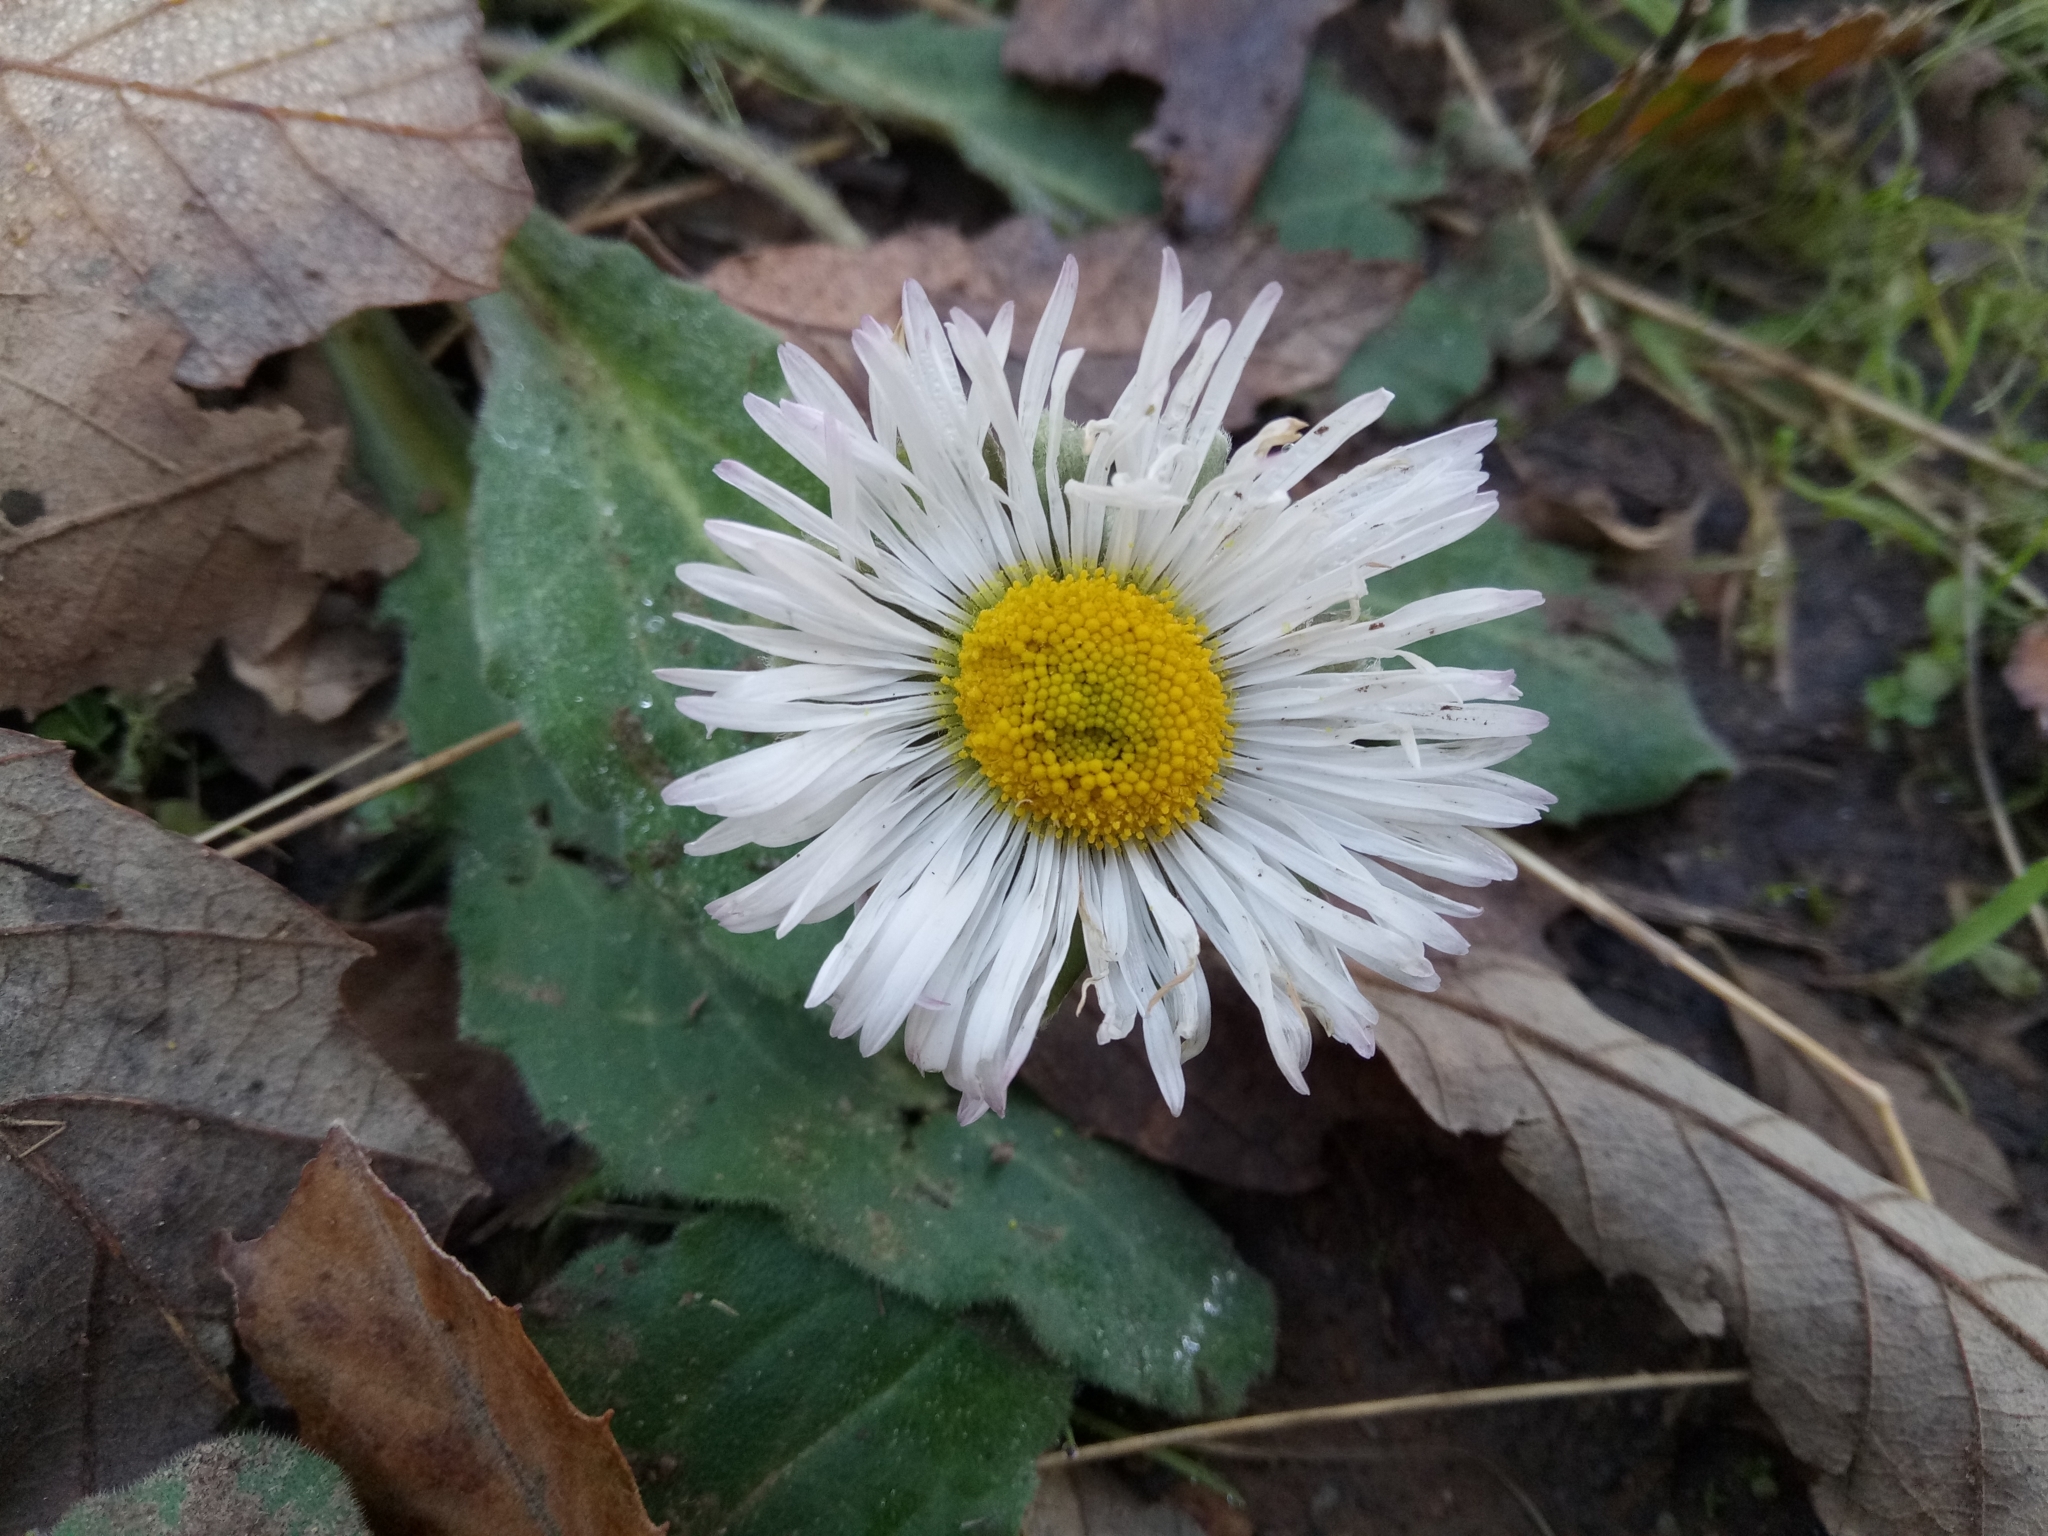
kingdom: Plantae
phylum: Tracheophyta
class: Magnoliopsida
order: Asterales
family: Asteraceae
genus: Bellis
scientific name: Bellis
